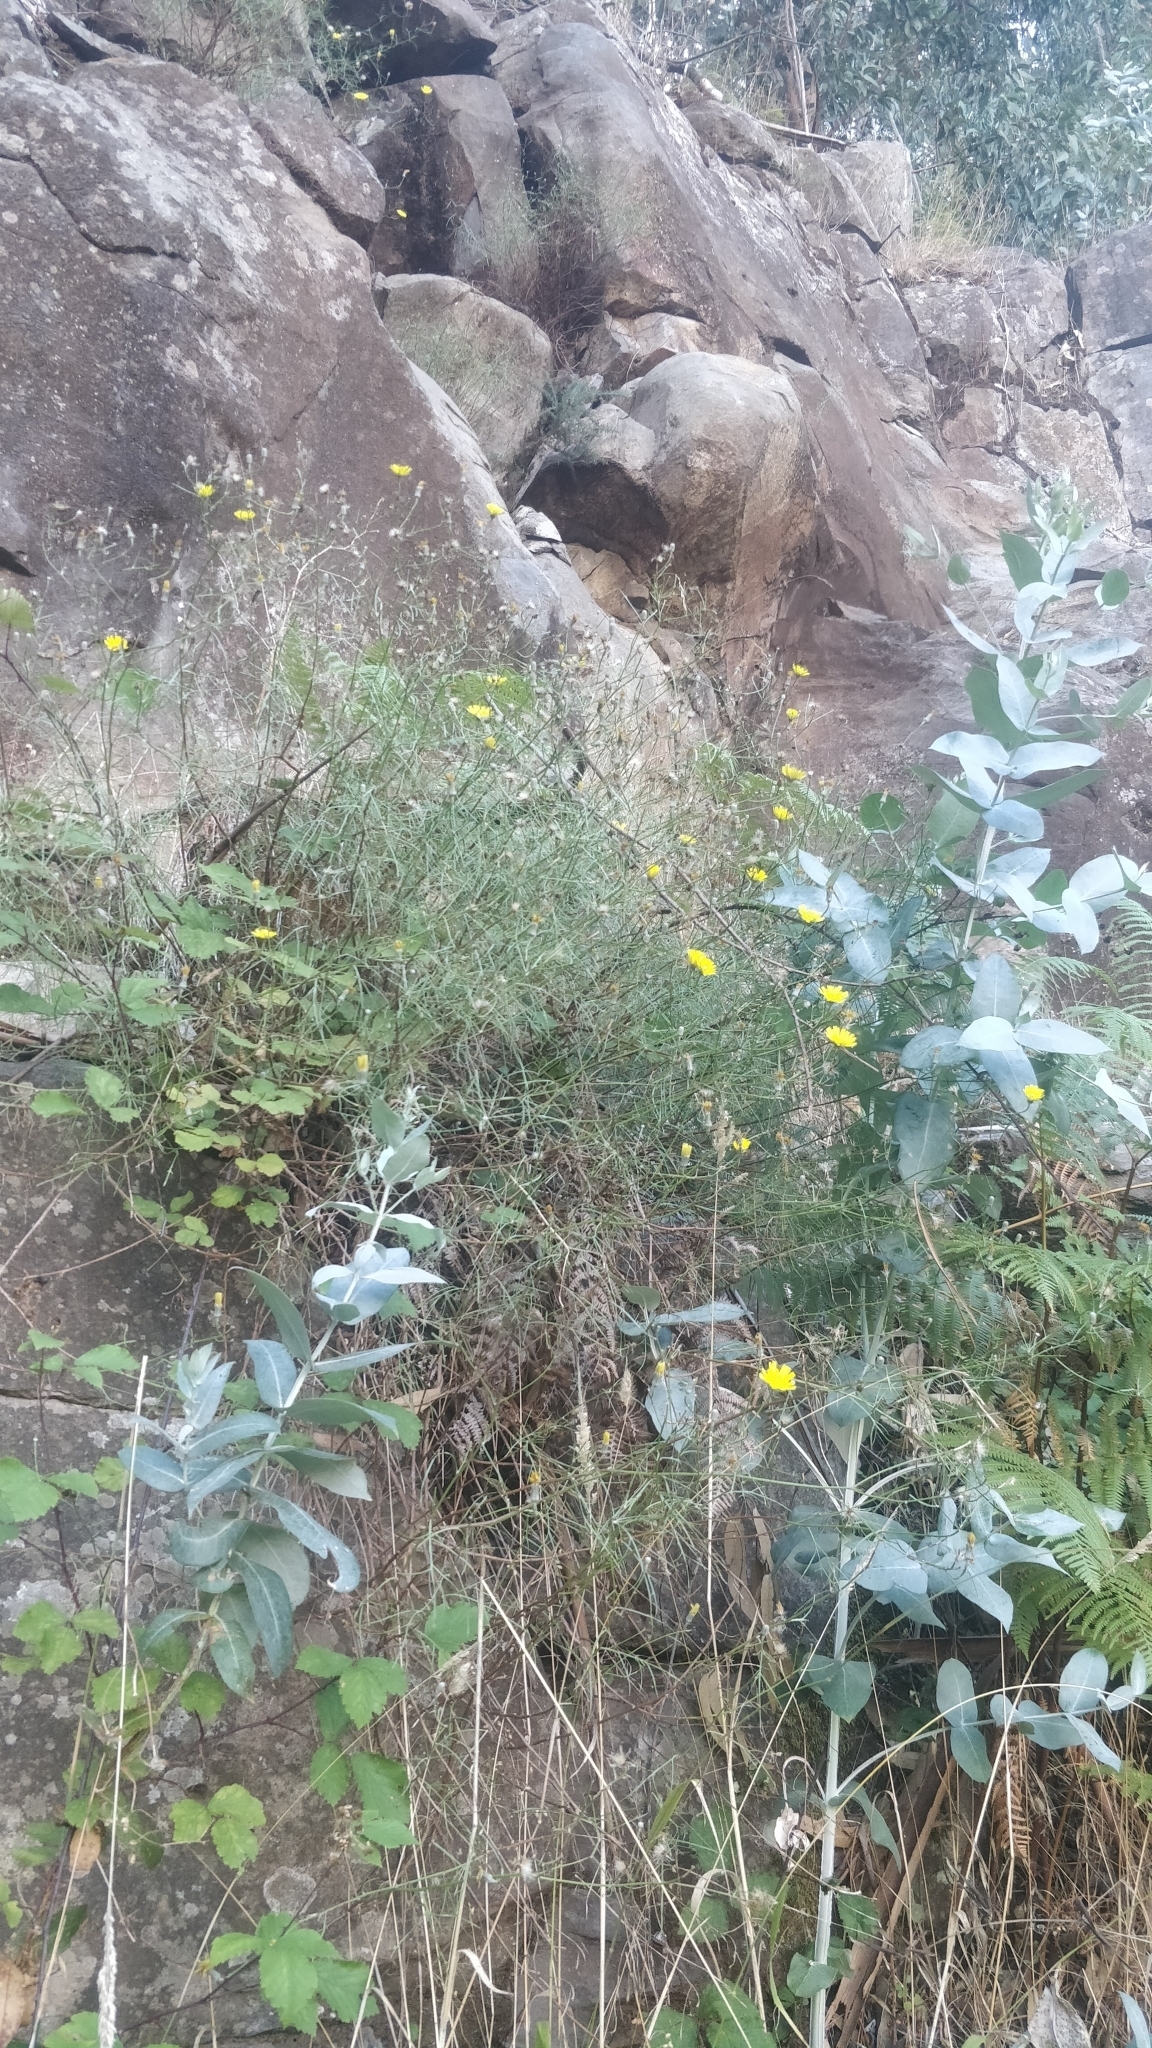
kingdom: Plantae
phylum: Tracheophyta
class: Magnoliopsida
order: Asterales
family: Asteraceae
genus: Tolpis
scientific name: Tolpis succulenta
